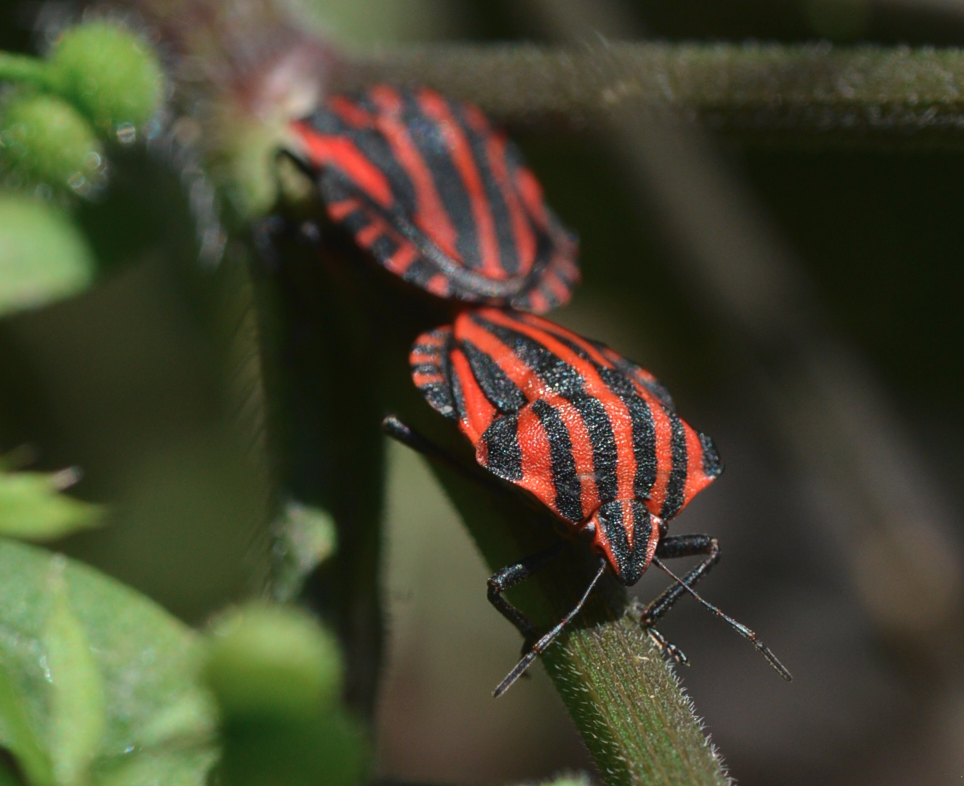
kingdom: Animalia
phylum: Arthropoda
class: Insecta
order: Hemiptera
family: Pentatomidae
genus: Graphosoma
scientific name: Graphosoma italicum
